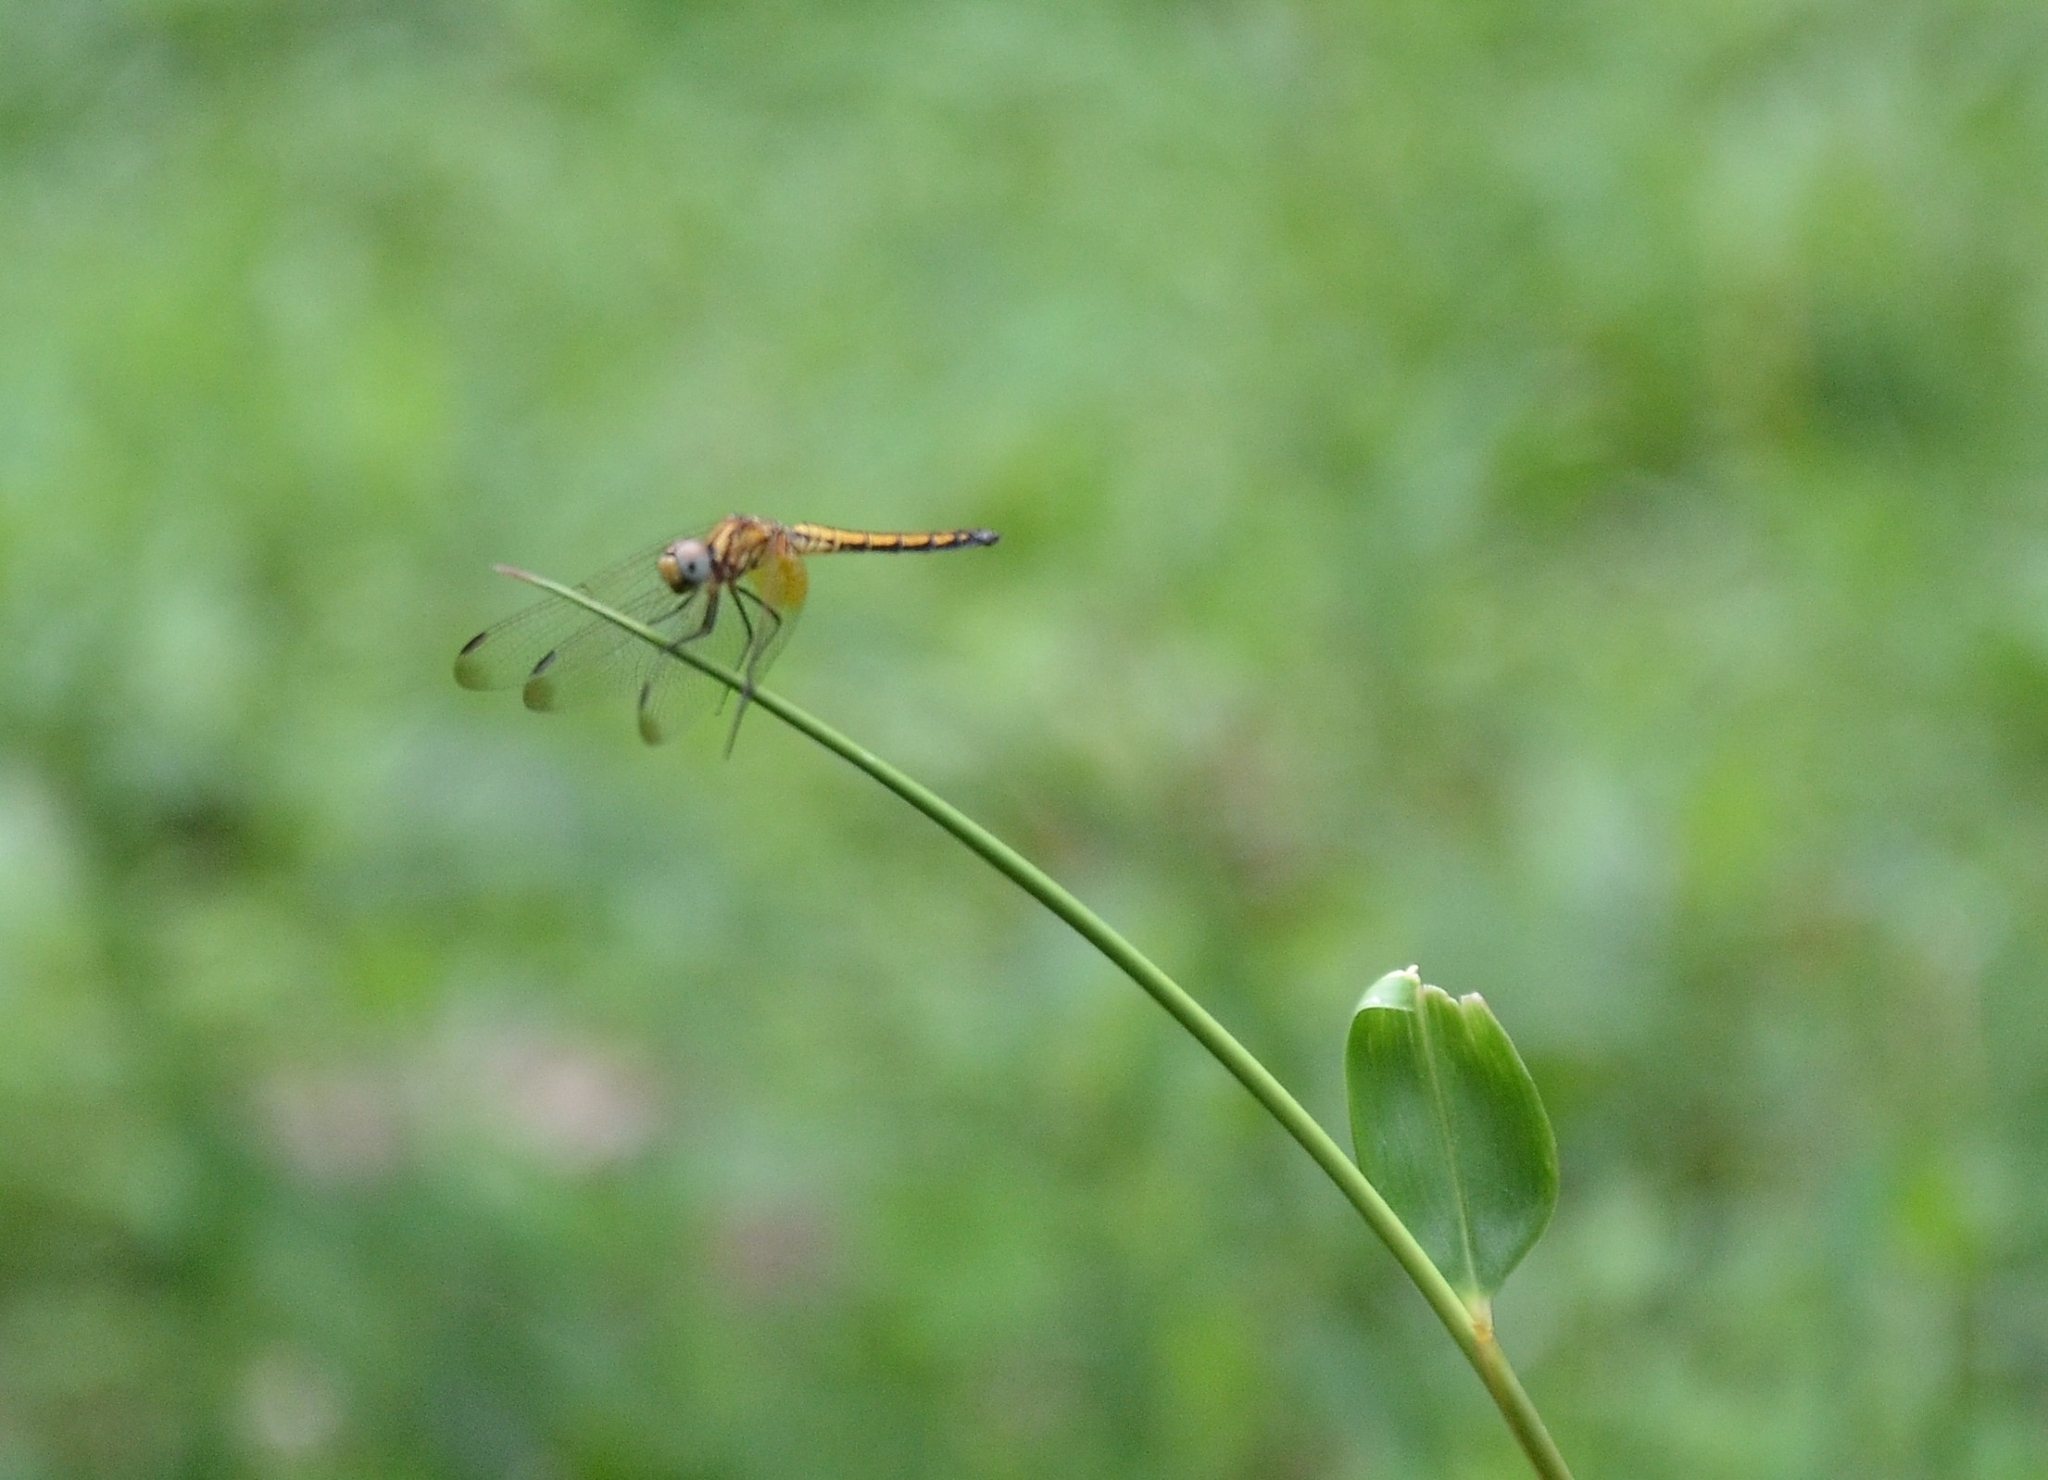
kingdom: Animalia
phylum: Arthropoda
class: Insecta
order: Odonata
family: Libellulidae
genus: Trithemis
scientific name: Trithemis aurora
